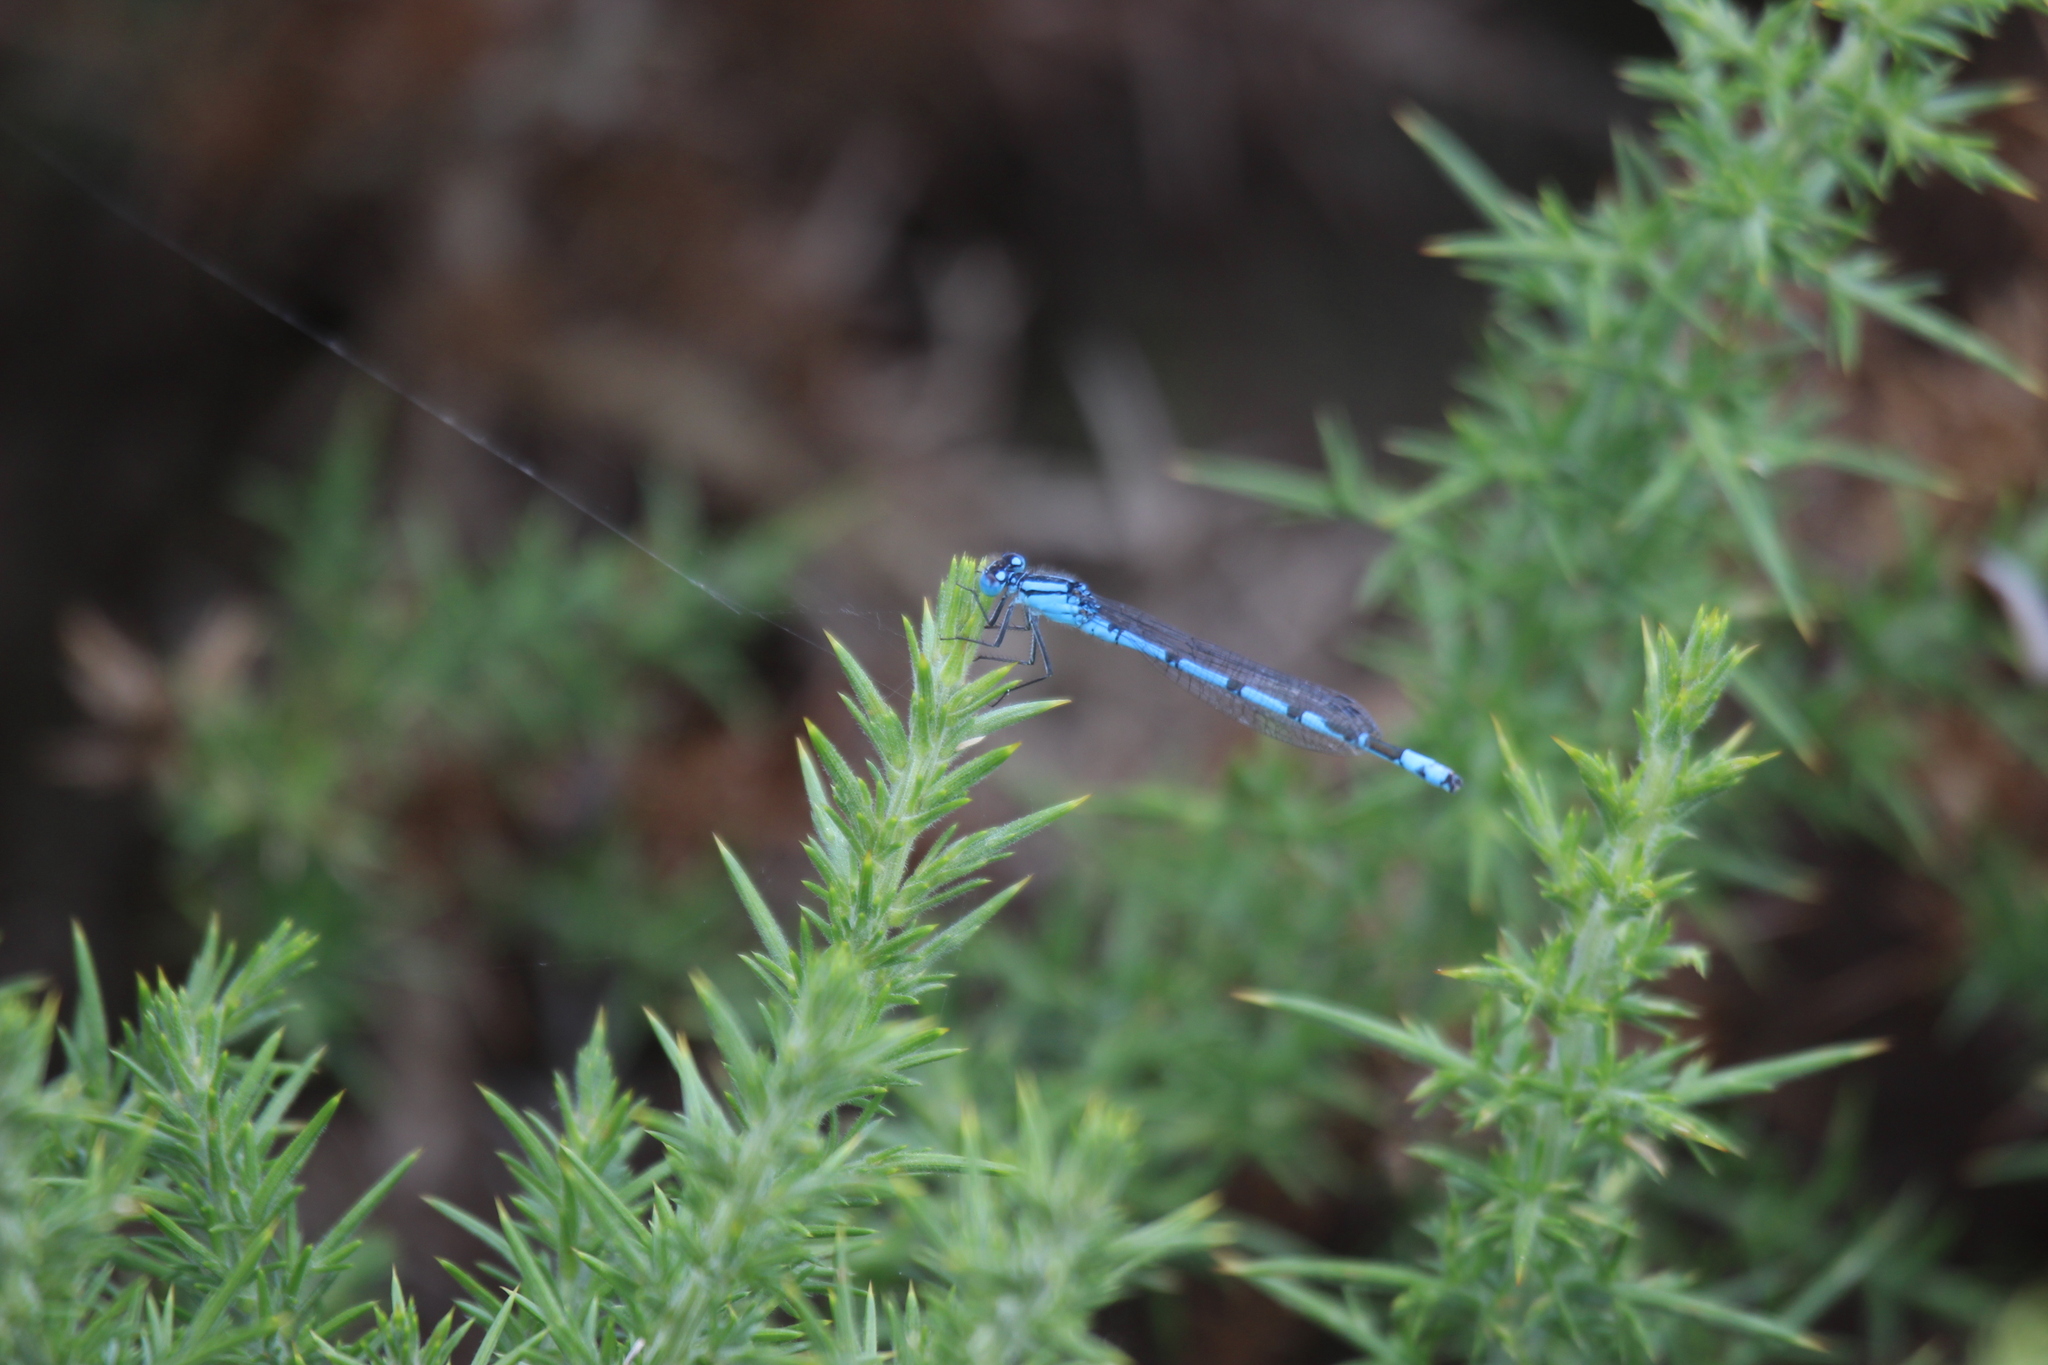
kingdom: Animalia
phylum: Arthropoda
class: Insecta
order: Odonata
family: Coenagrionidae
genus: Enallagma
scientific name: Enallagma cyathigerum
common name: Common blue damselfly
